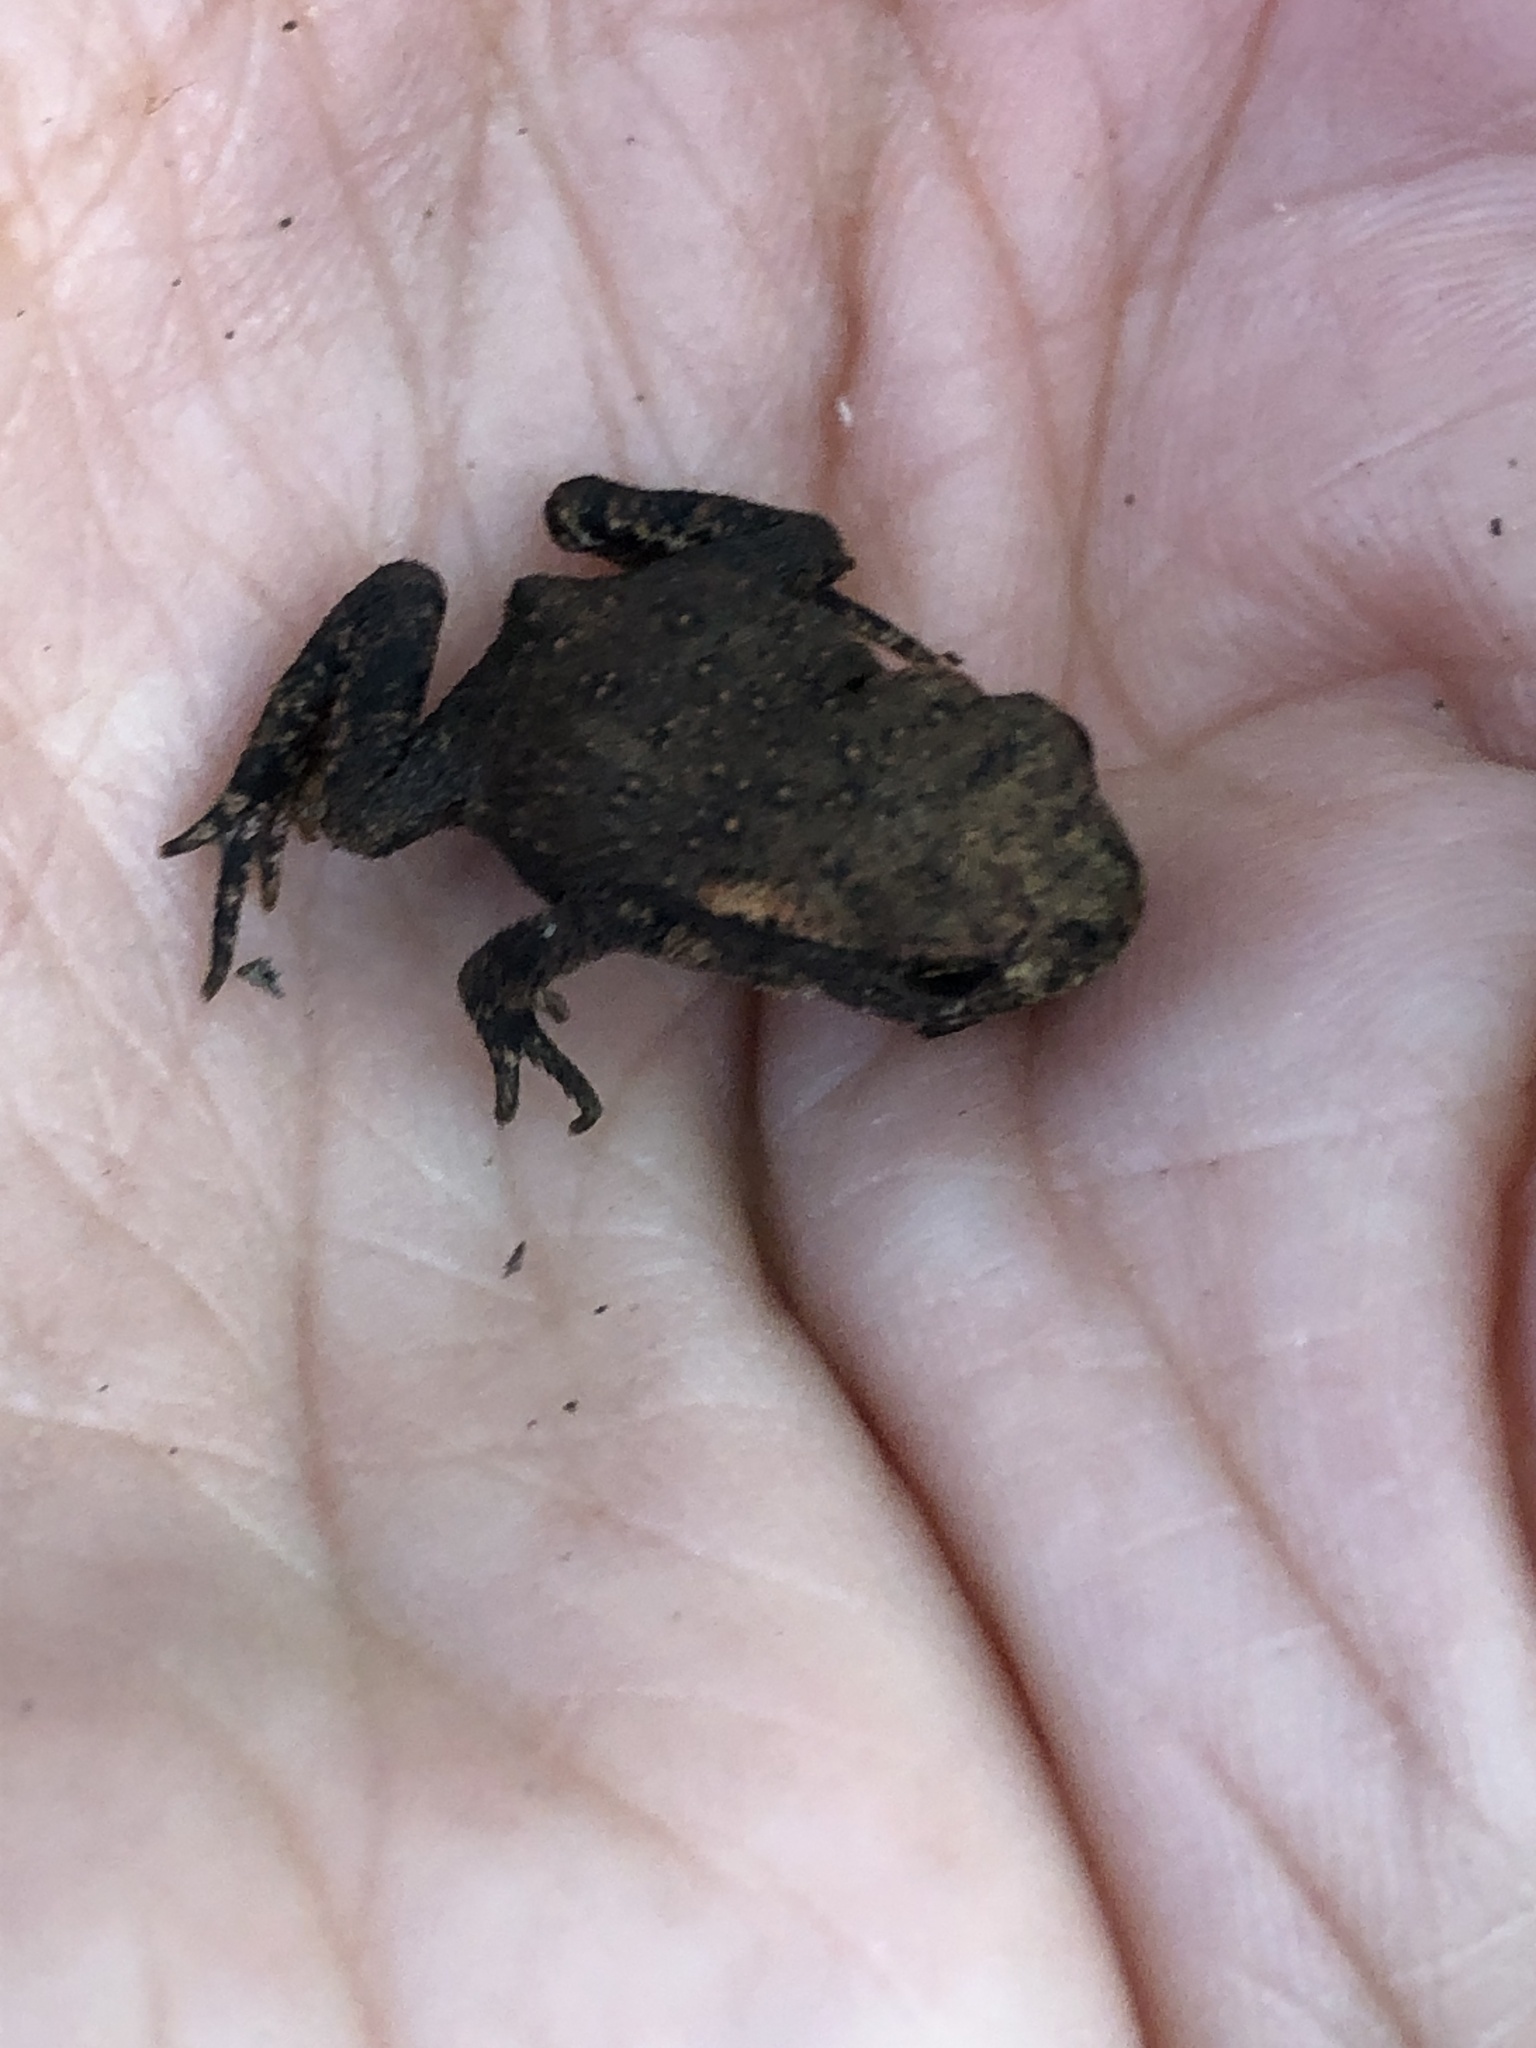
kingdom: Animalia
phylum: Chordata
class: Amphibia
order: Anura
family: Bufonidae
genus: Bufo
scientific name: Bufo spinosus
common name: Western common toad
